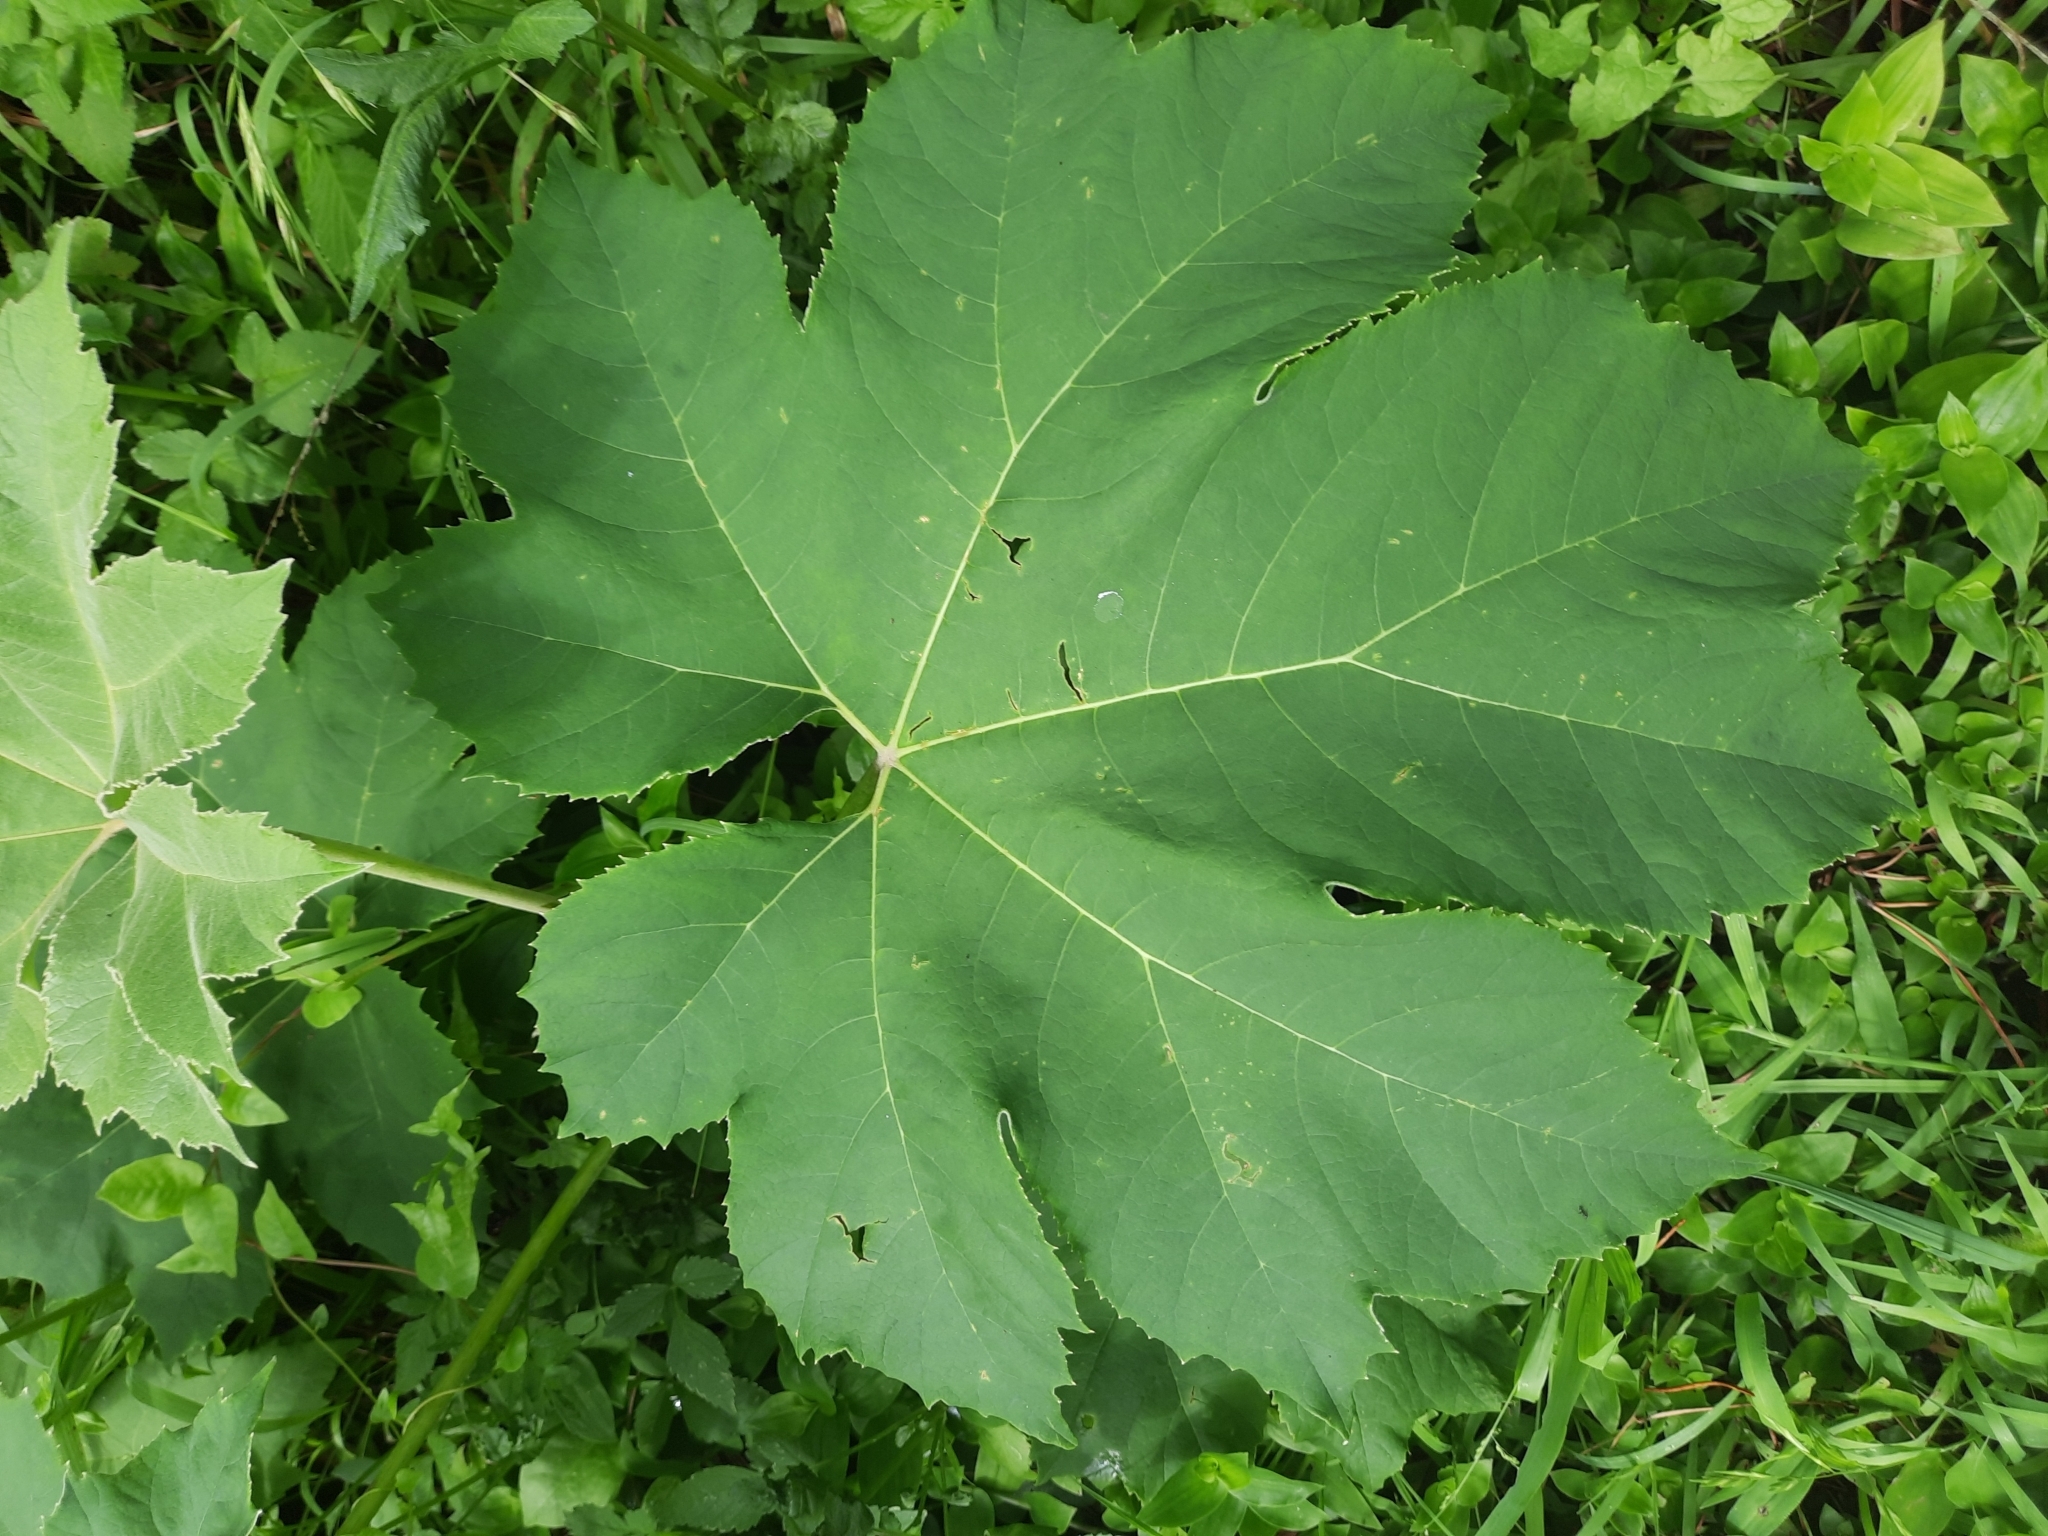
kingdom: Plantae
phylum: Tracheophyta
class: Magnoliopsida
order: Apiales
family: Araliaceae
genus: Tetrapanax
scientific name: Tetrapanax papyrifer
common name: Rice-paper plant
